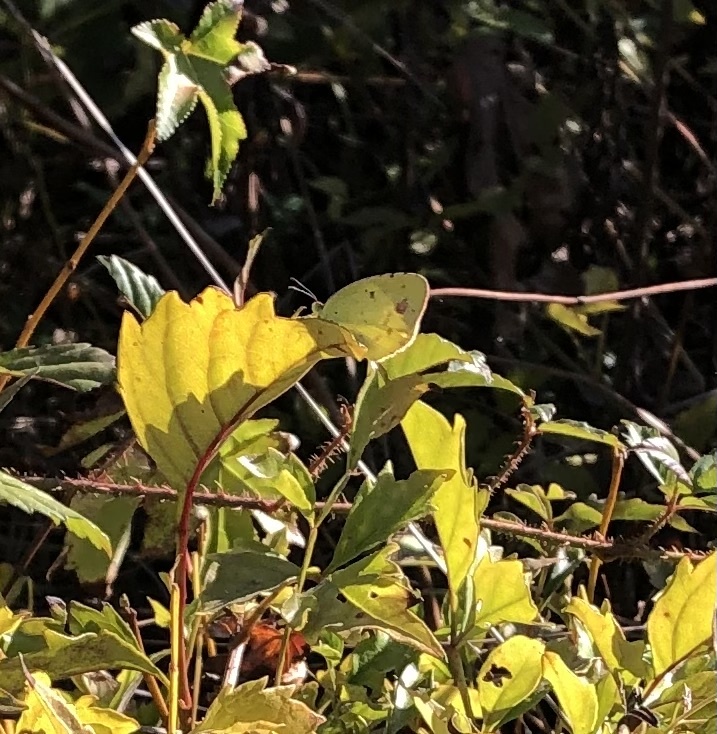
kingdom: Animalia
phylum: Arthropoda
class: Insecta
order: Lepidoptera
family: Pieridae
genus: Pyrisitia
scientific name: Pyrisitia lisa
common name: Little yellow
